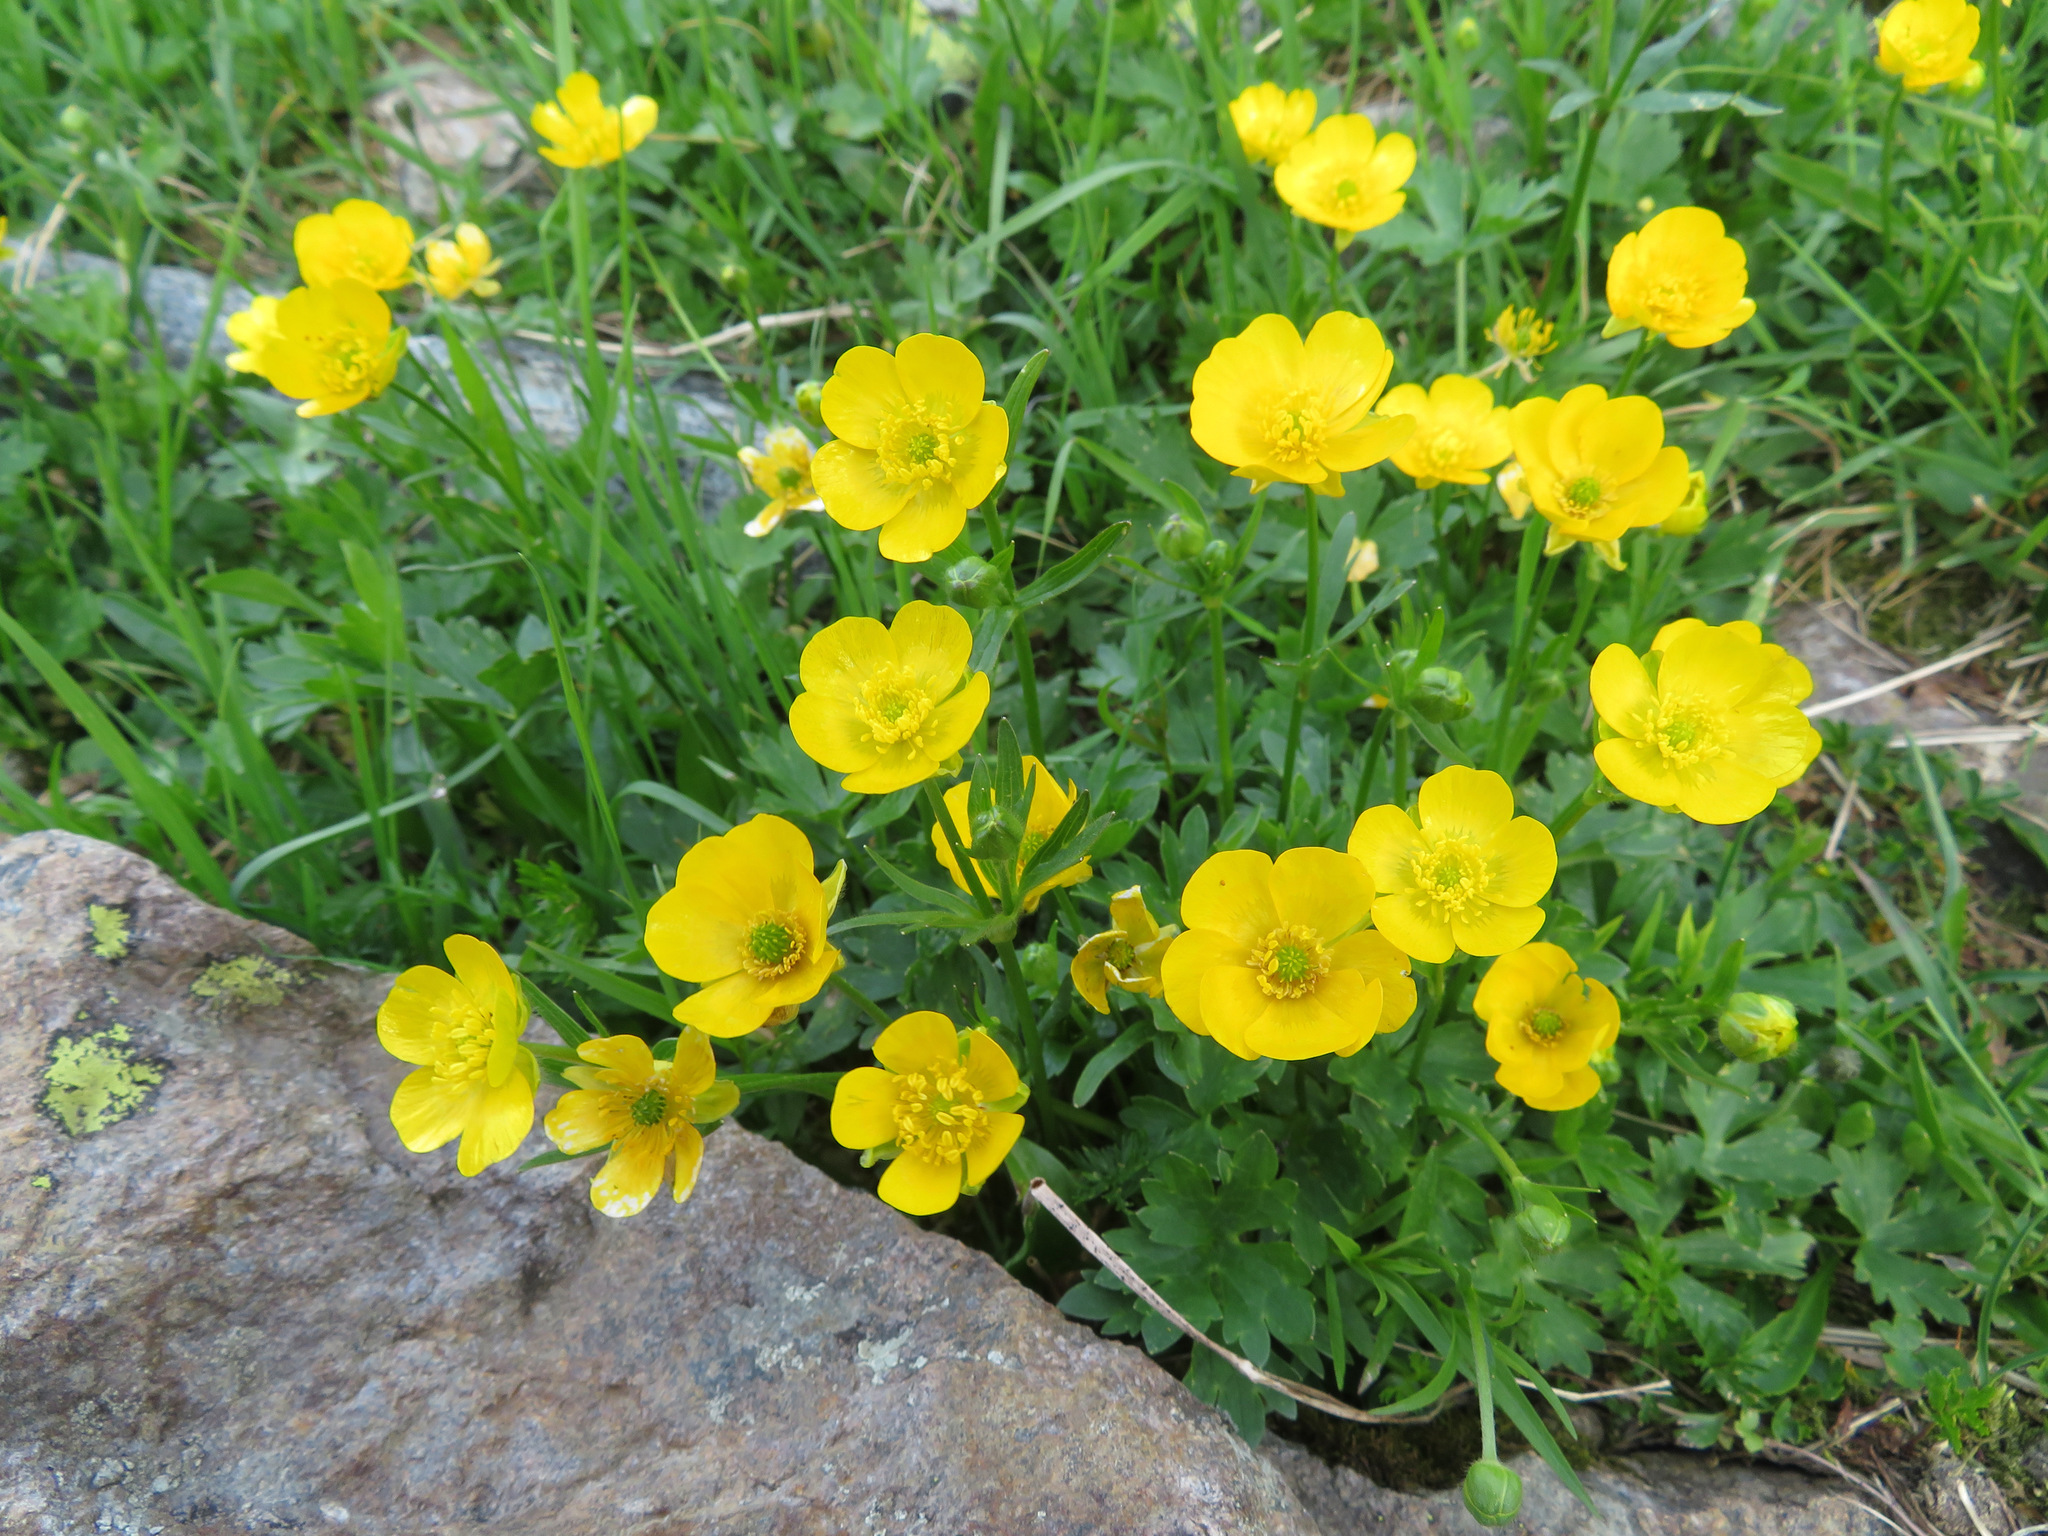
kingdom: Plantae
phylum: Tracheophyta
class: Magnoliopsida
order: Ranunculales
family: Ranunculaceae
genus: Ranunculus
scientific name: Ranunculus montanus
